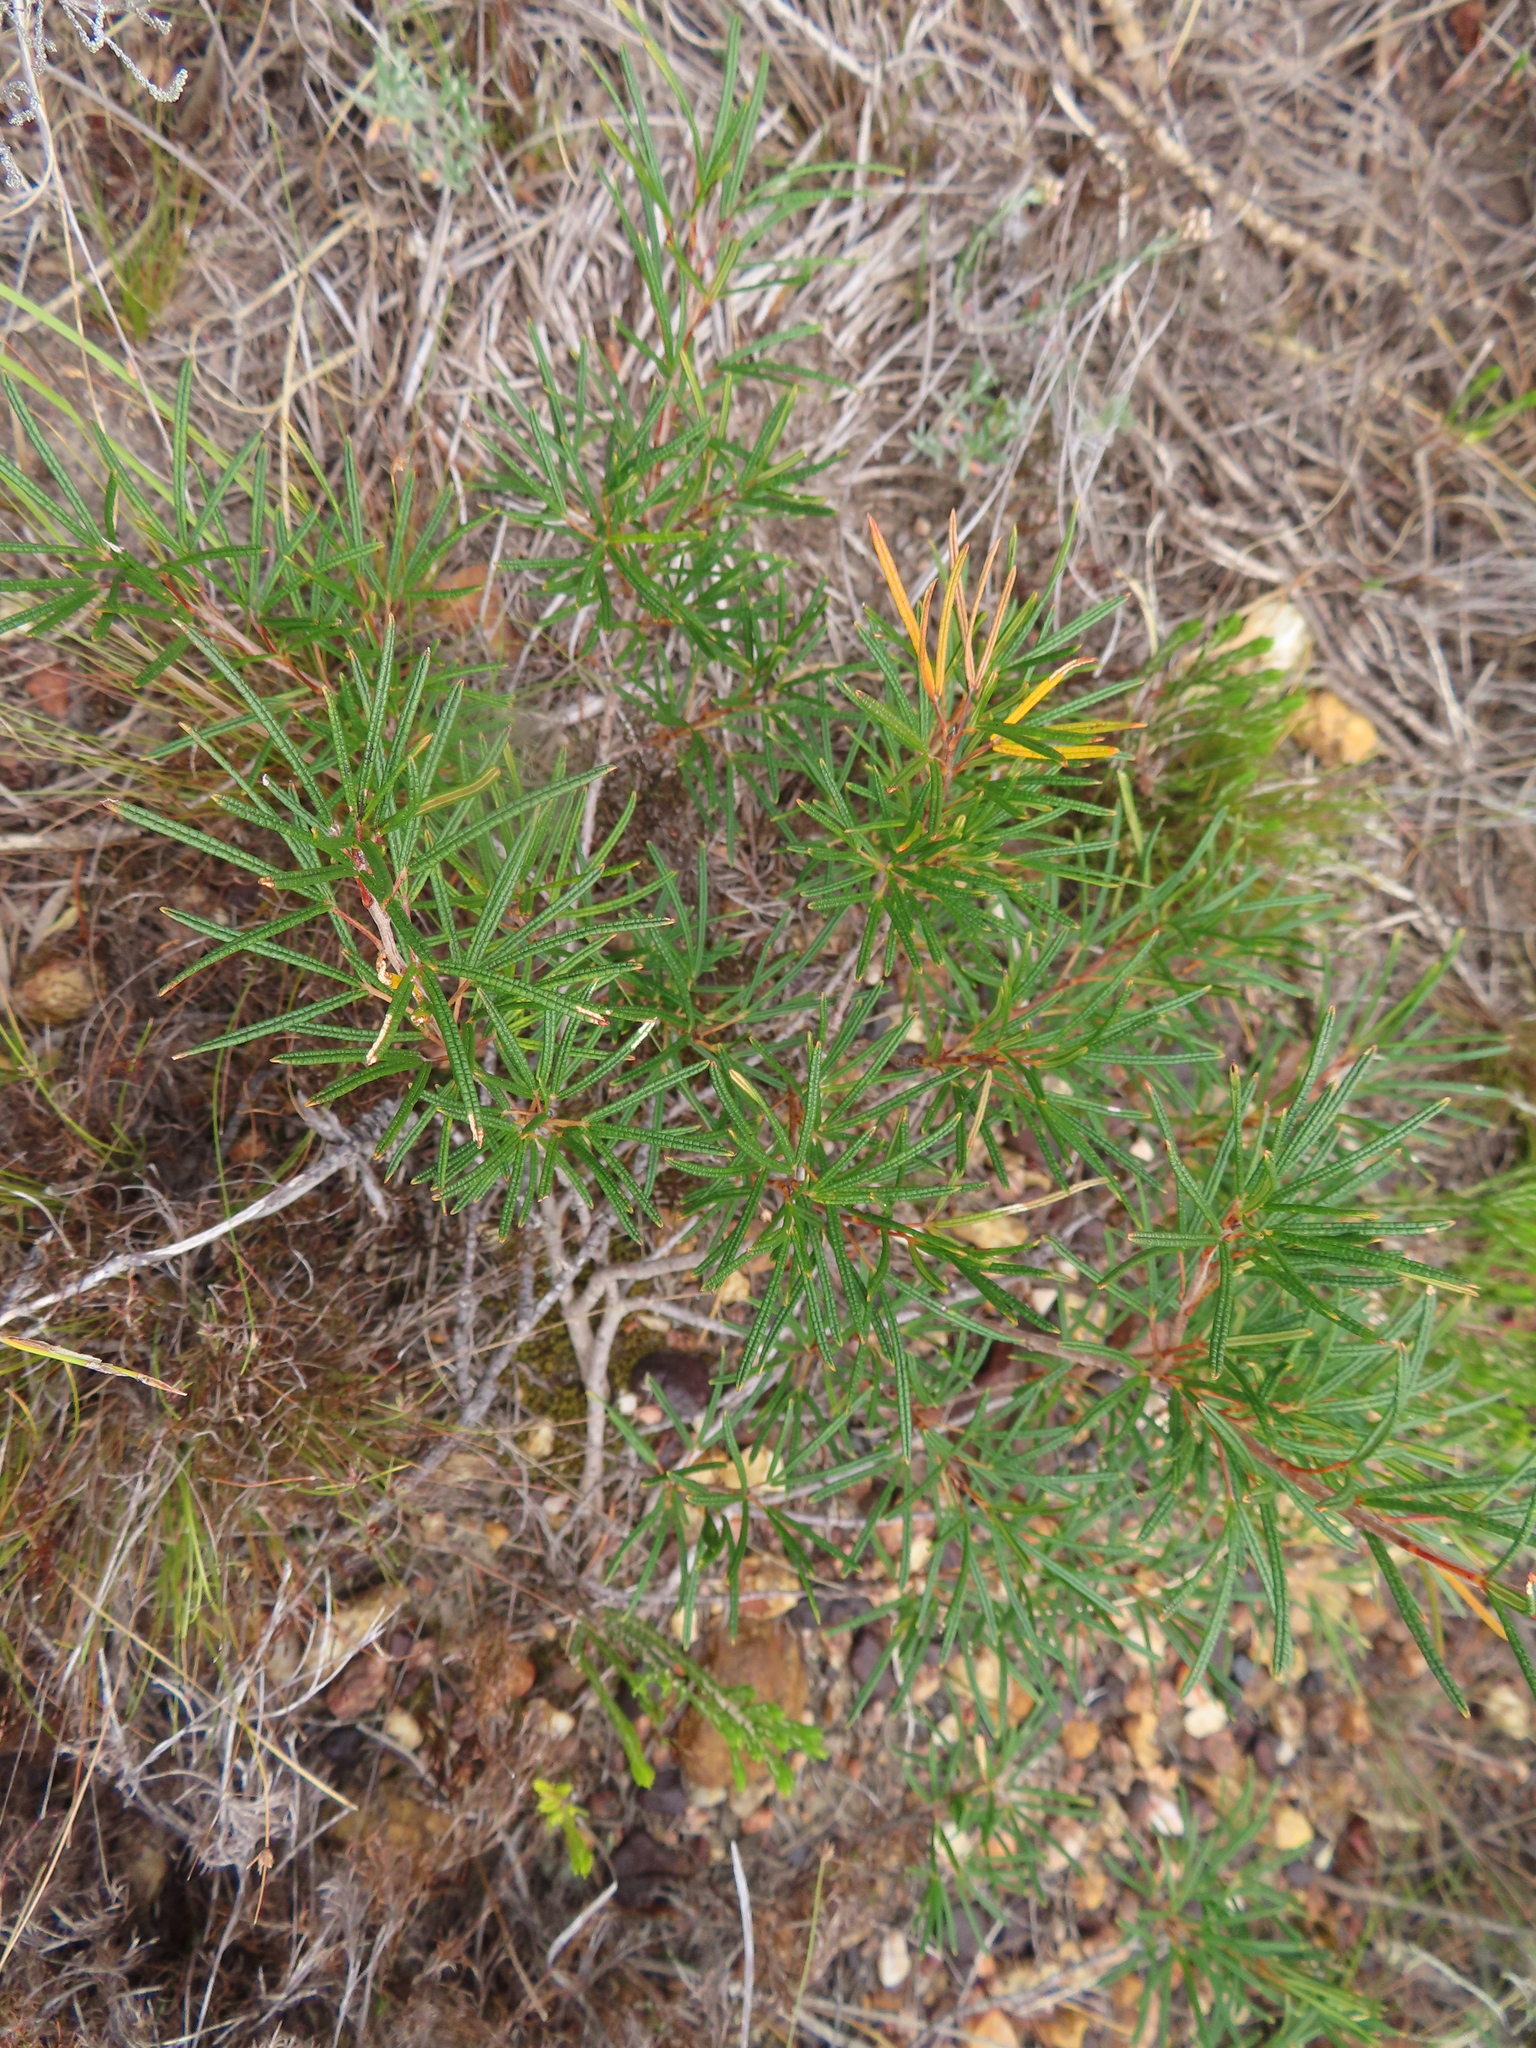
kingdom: Plantae
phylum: Tracheophyta
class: Magnoliopsida
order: Sapindales
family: Anacardiaceae
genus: Searsia
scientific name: Searsia rosmarinifolia
